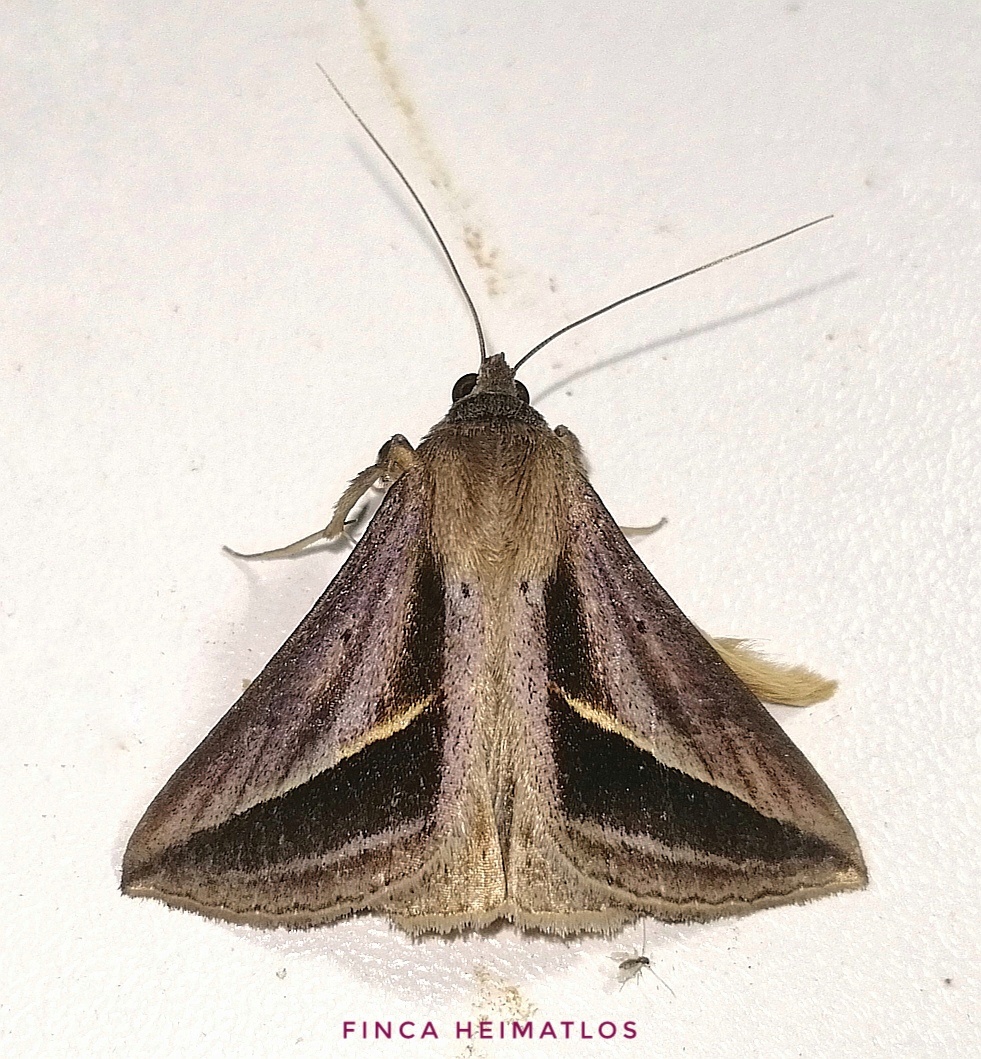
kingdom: Animalia
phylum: Arthropoda
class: Insecta
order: Lepidoptera
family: Erebidae
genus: Mocis
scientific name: Mocis dyndima
